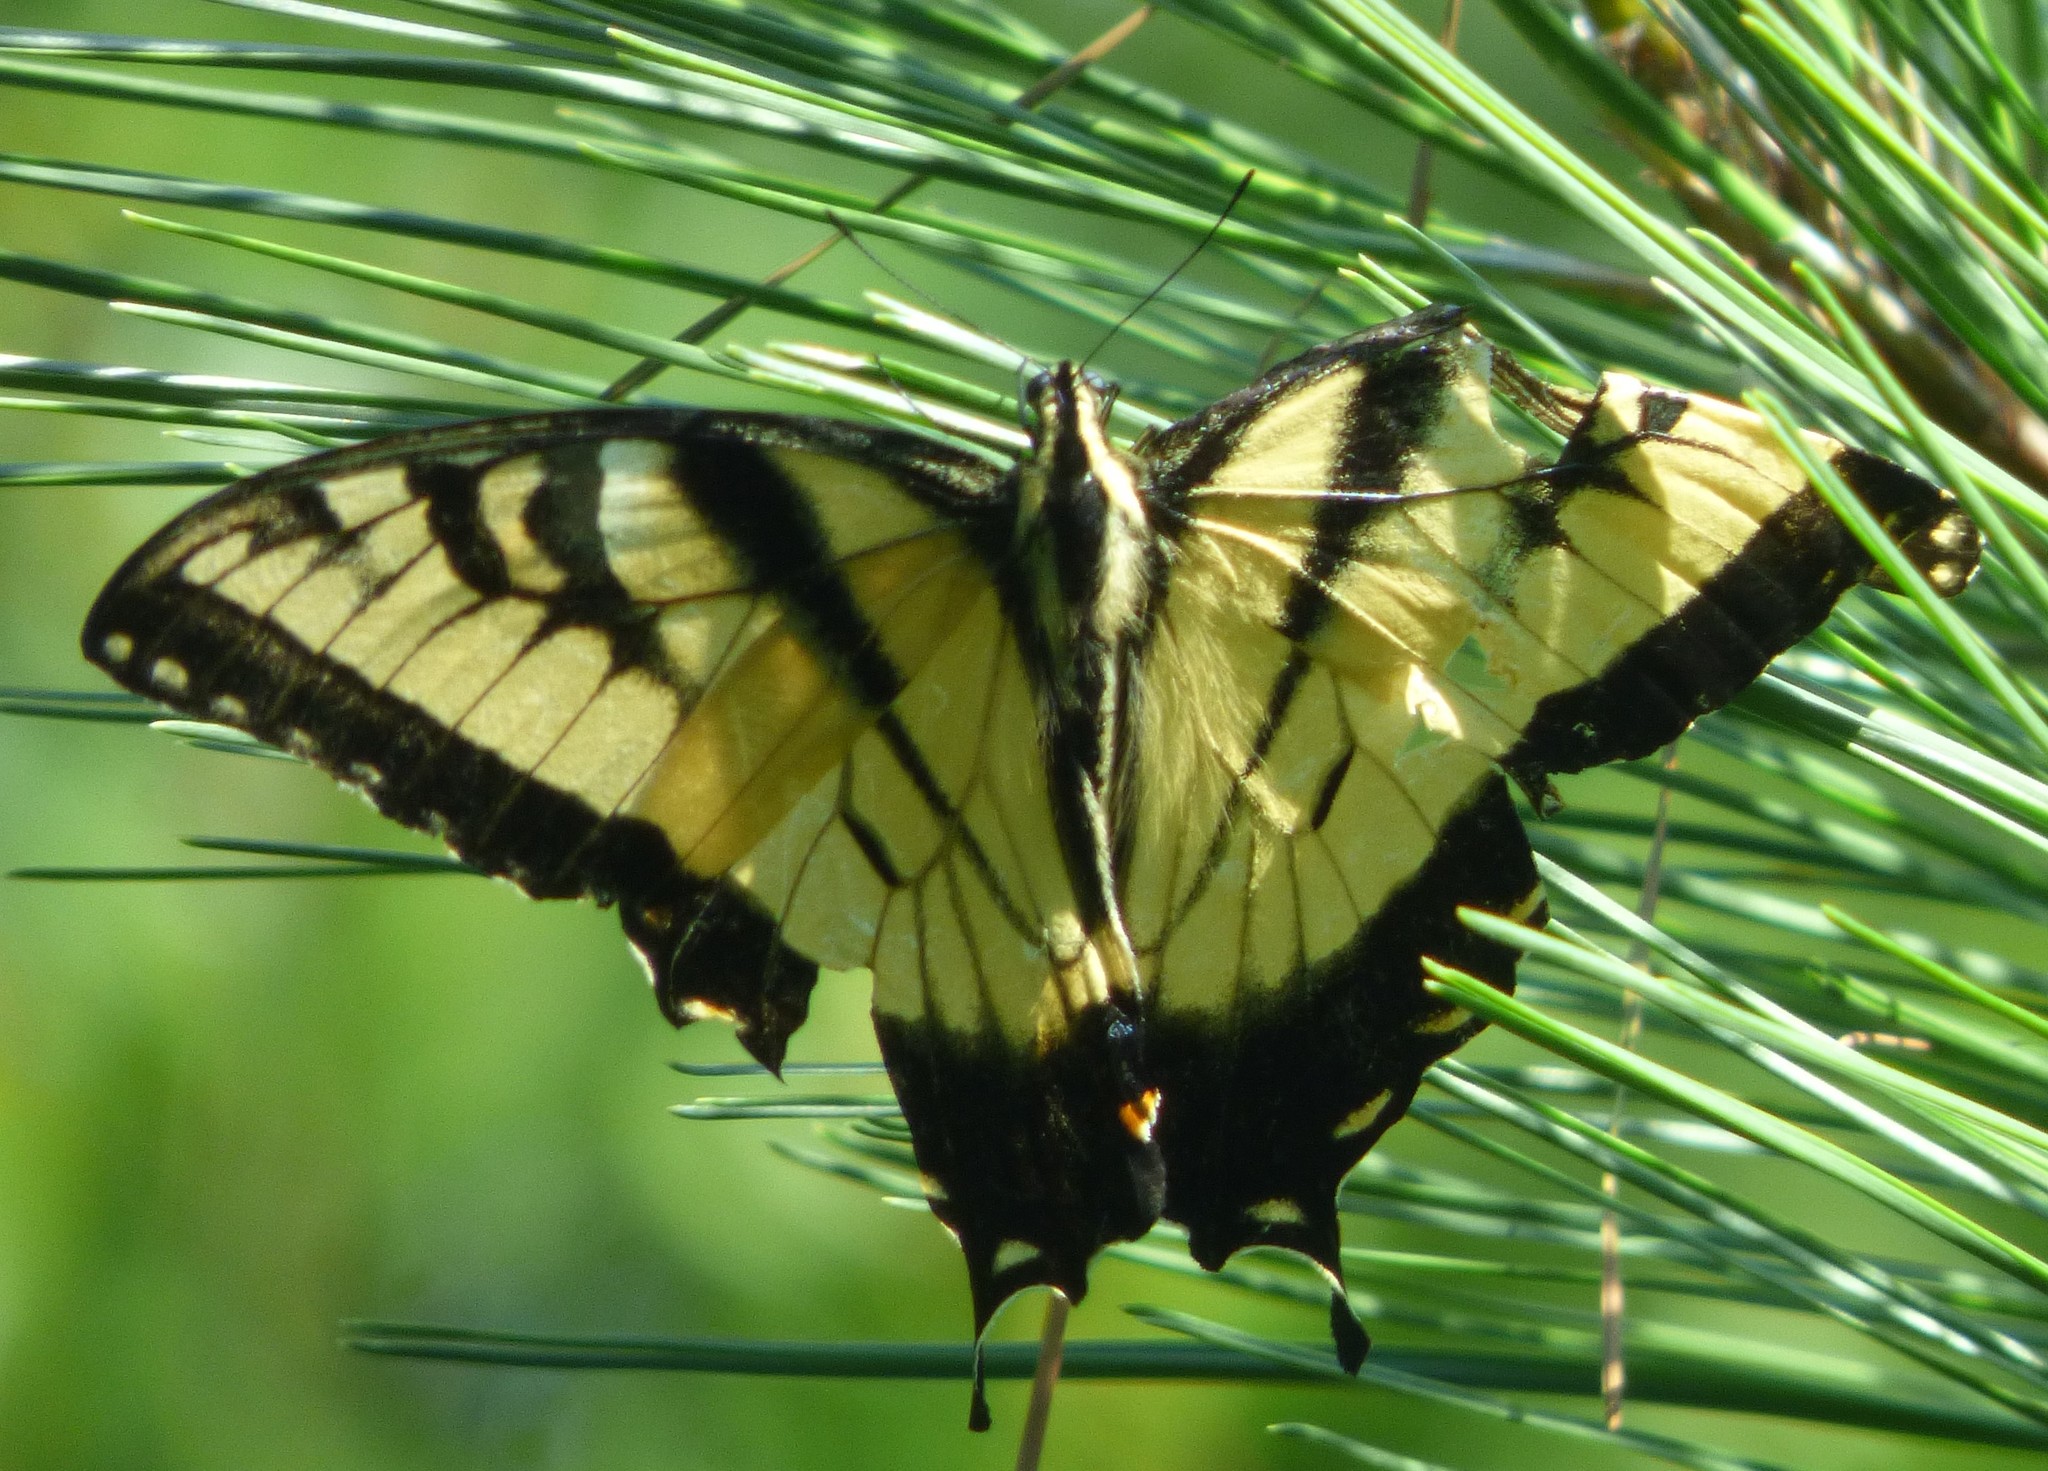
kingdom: Animalia
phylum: Arthropoda
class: Insecta
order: Lepidoptera
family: Papilionidae
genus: Papilio
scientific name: Papilio glaucus
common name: Tiger swallowtail
